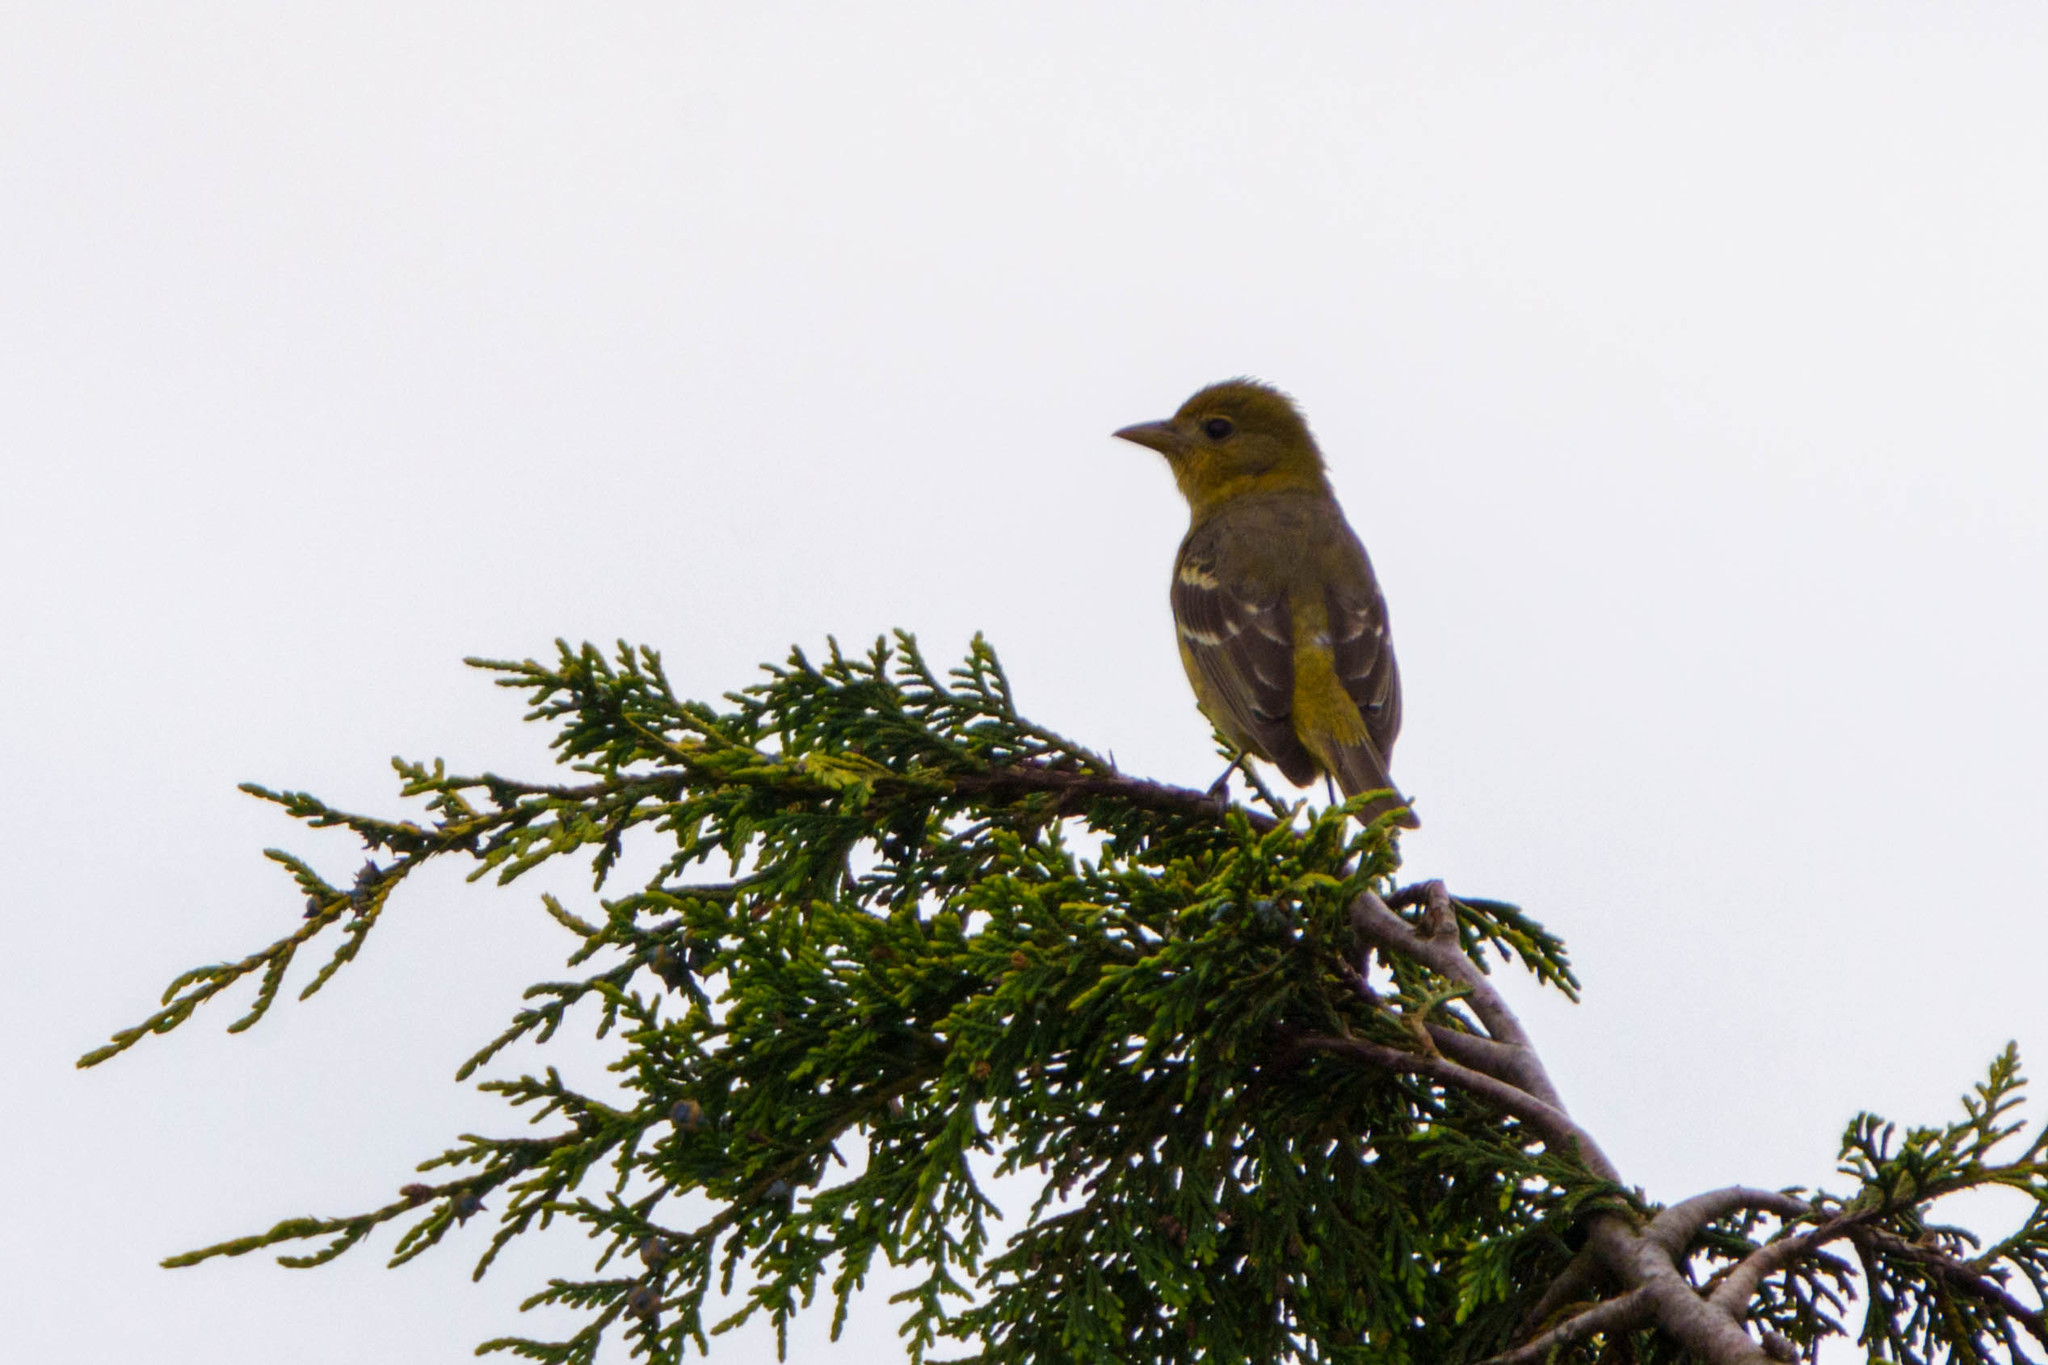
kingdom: Animalia
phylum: Chordata
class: Aves
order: Passeriformes
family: Cardinalidae
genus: Piranga
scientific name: Piranga ludoviciana
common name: Western tanager
